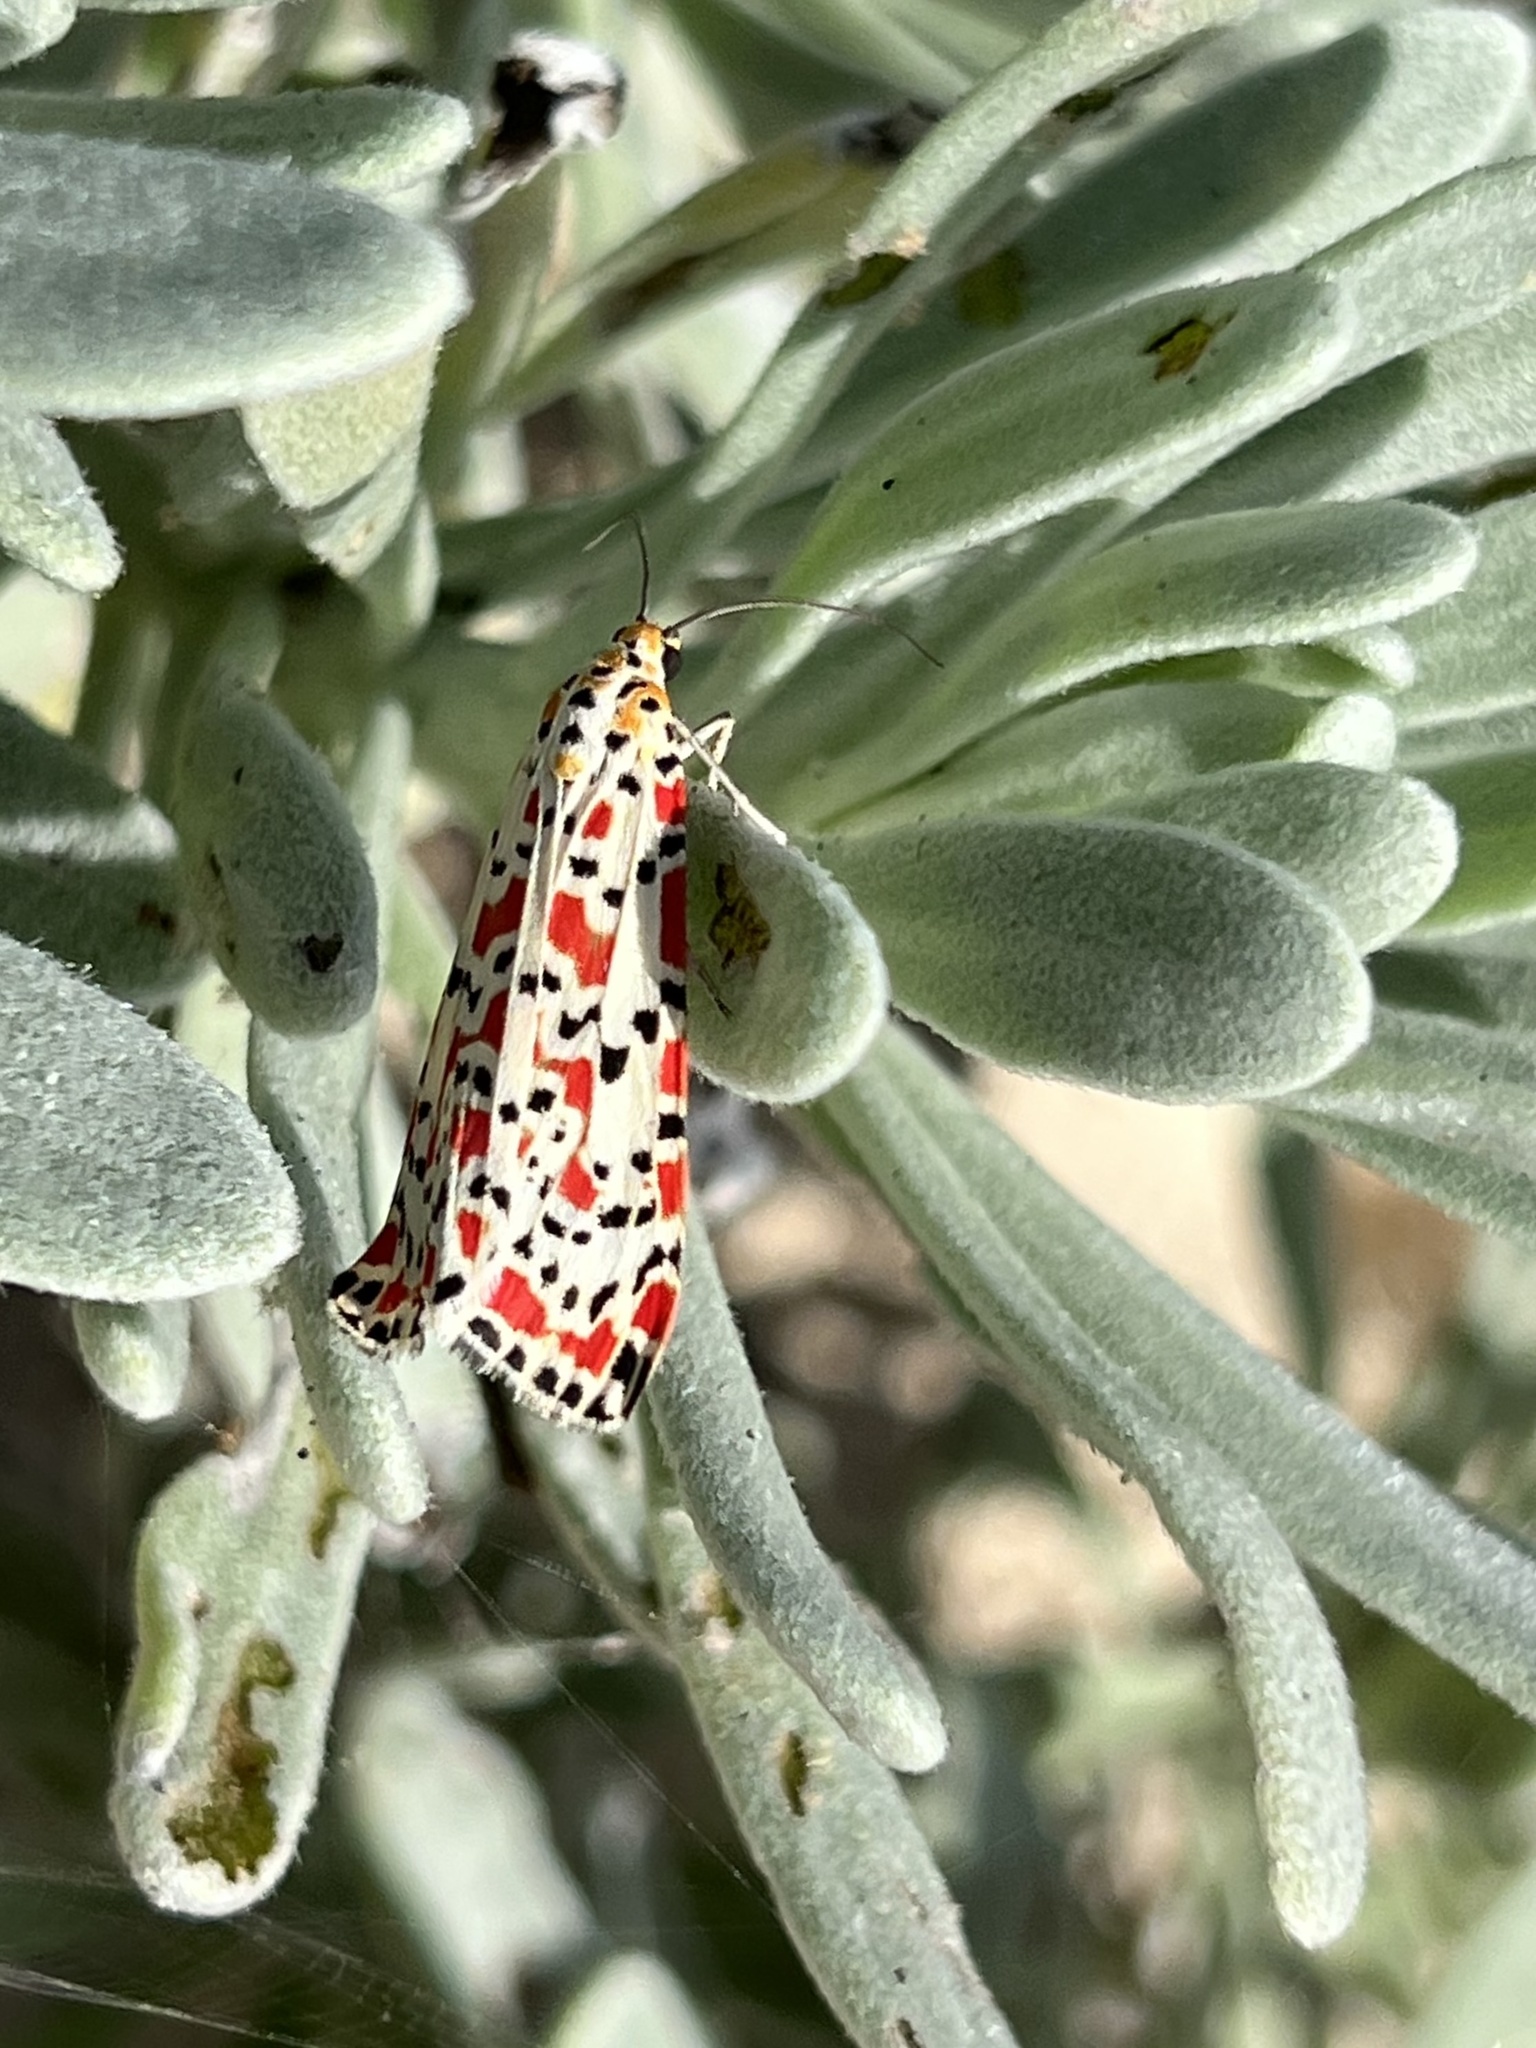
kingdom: Animalia
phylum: Arthropoda
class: Insecta
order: Lepidoptera
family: Erebidae
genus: Utetheisa
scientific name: Utetheisa ornatrix
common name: Beautiful utetheisa
